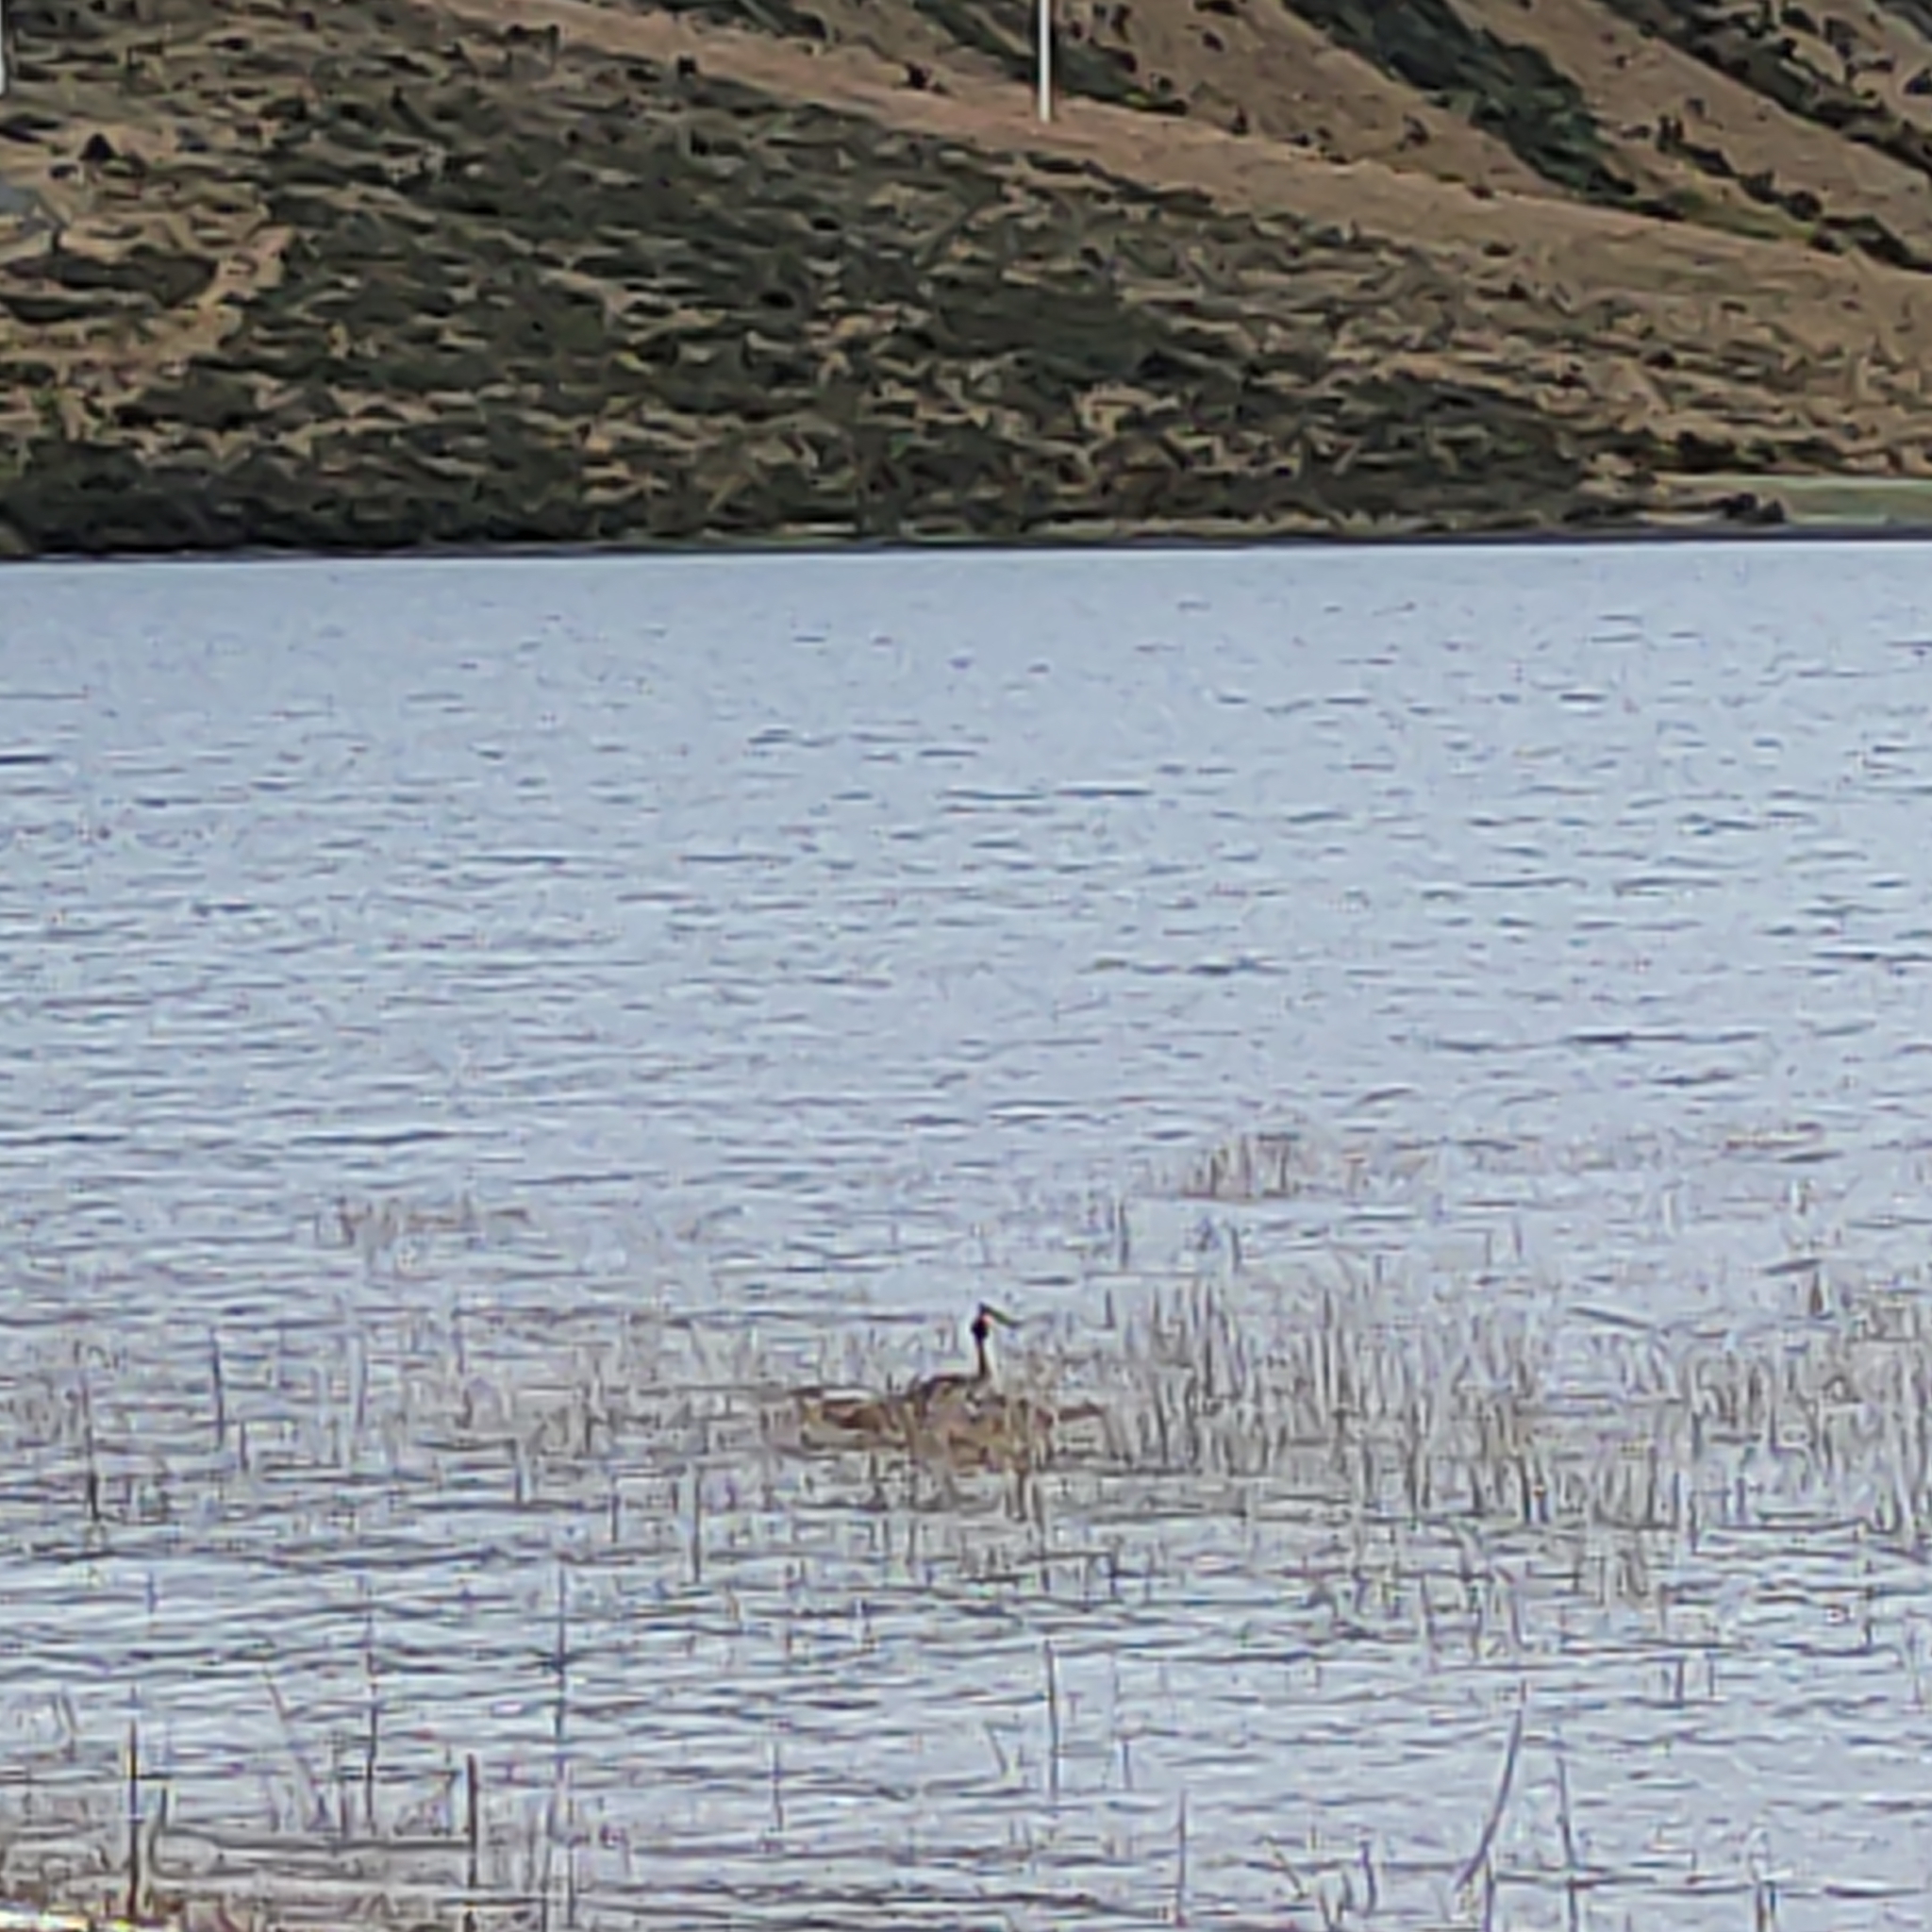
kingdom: Animalia
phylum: Chordata
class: Aves
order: Podicipediformes
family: Podicipedidae
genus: Podiceps
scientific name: Podiceps cristatus
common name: Great crested grebe
